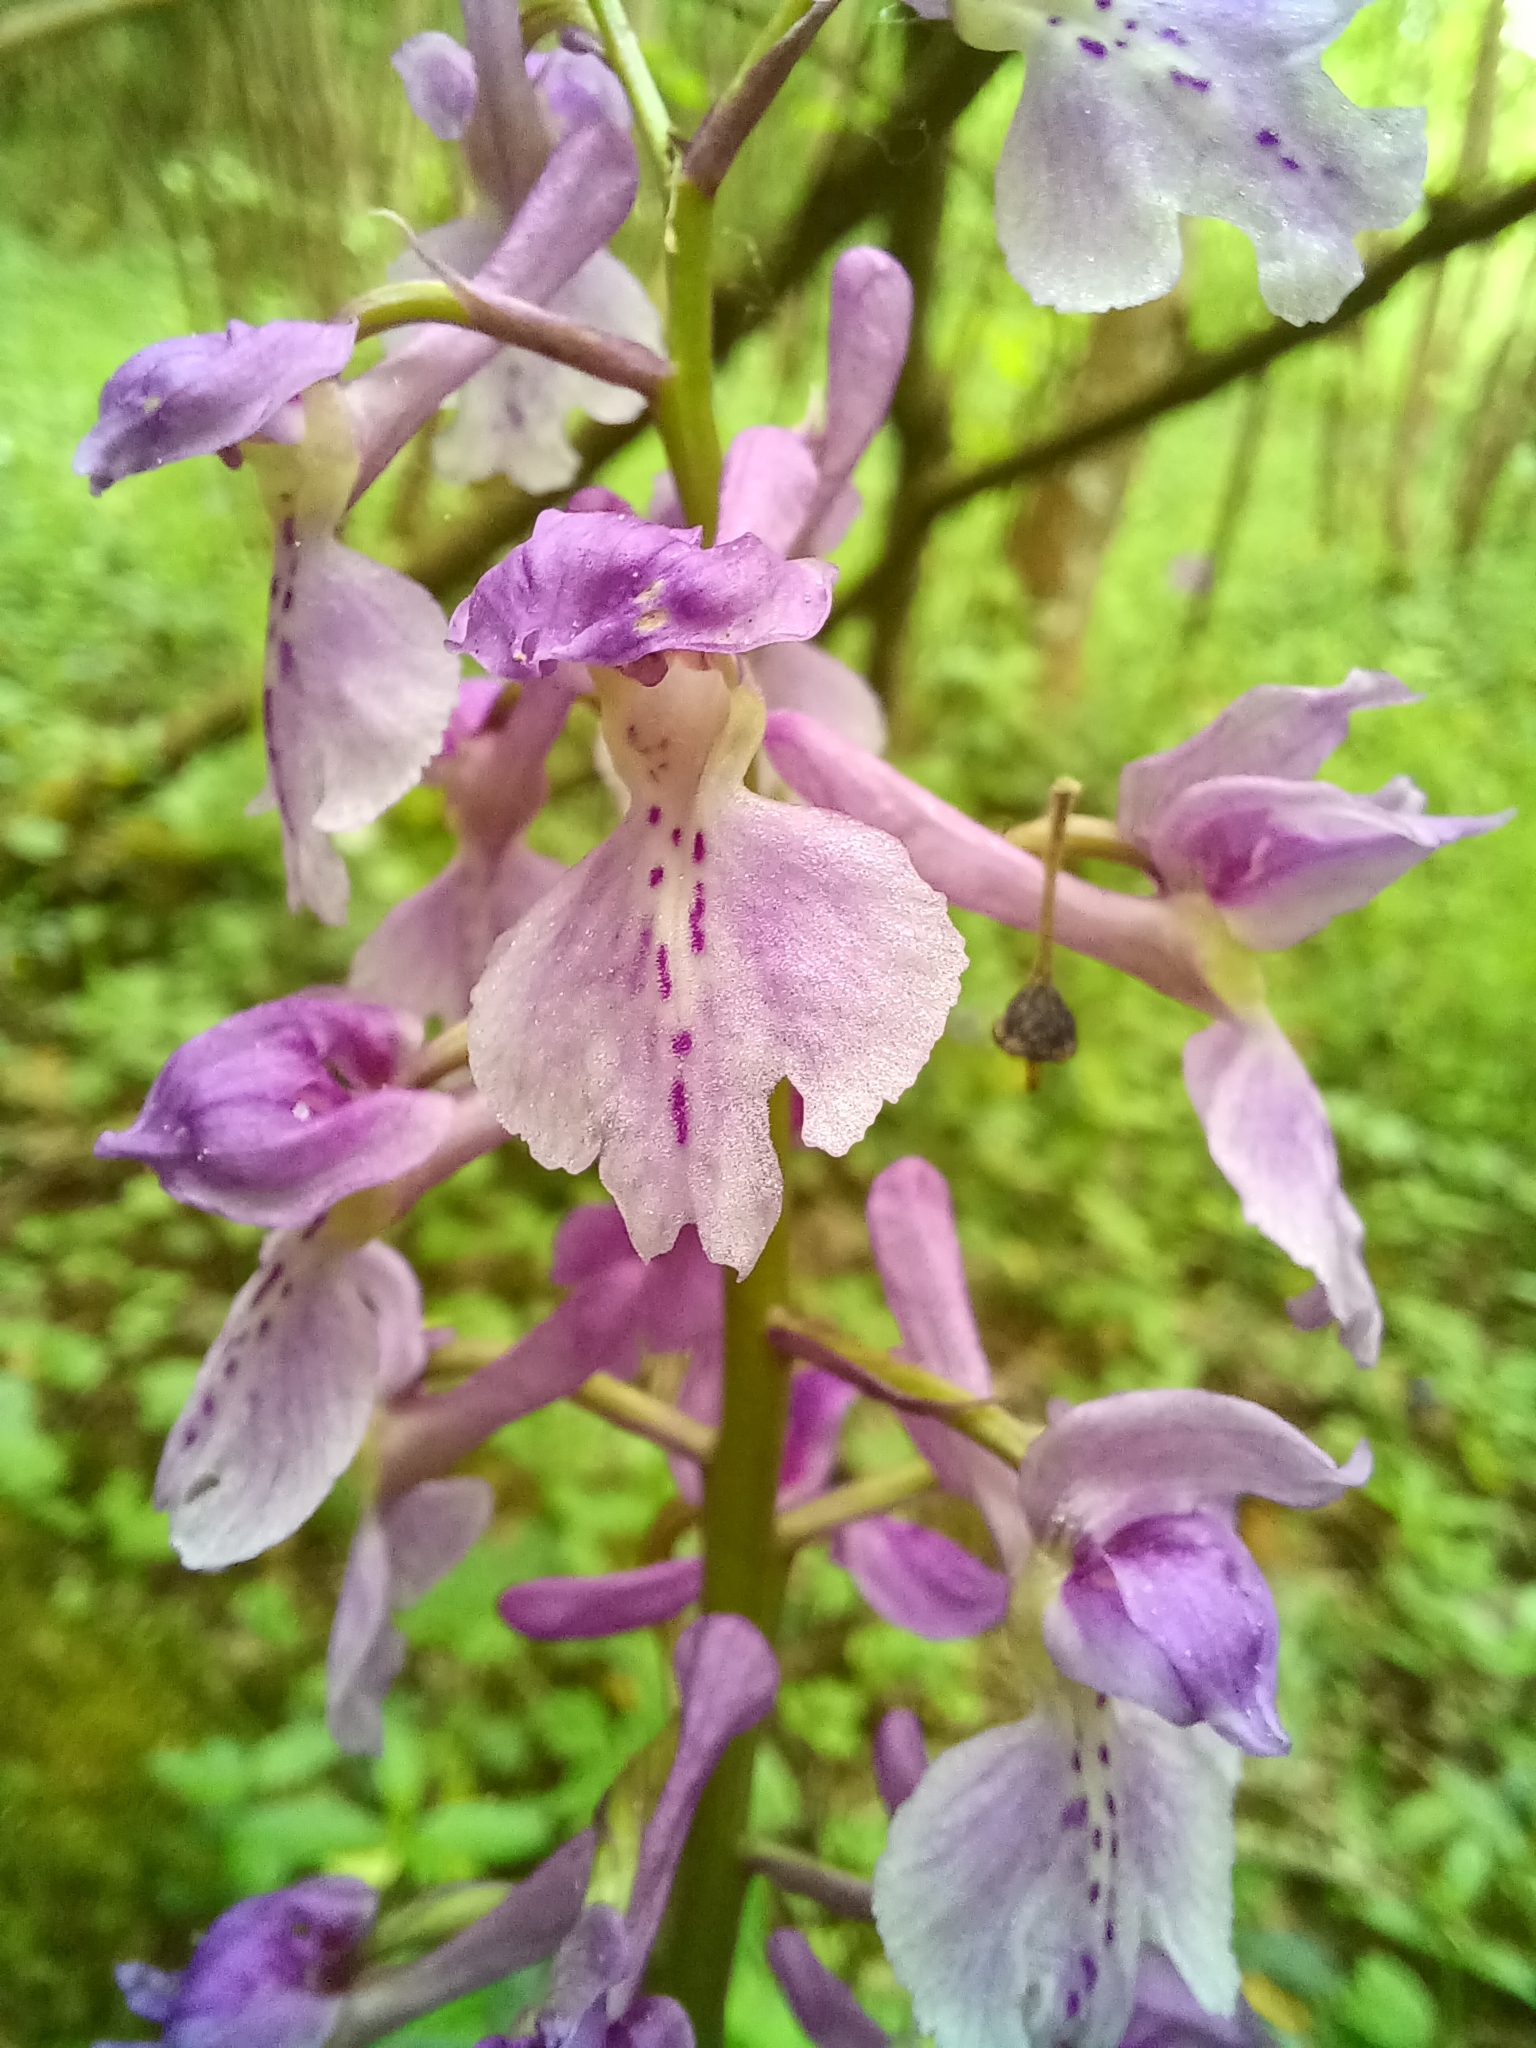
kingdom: Plantae
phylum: Tracheophyta
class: Liliopsida
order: Asparagales
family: Orchidaceae
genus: Orchis
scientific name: Orchis mascula
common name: Early-purple orchid
